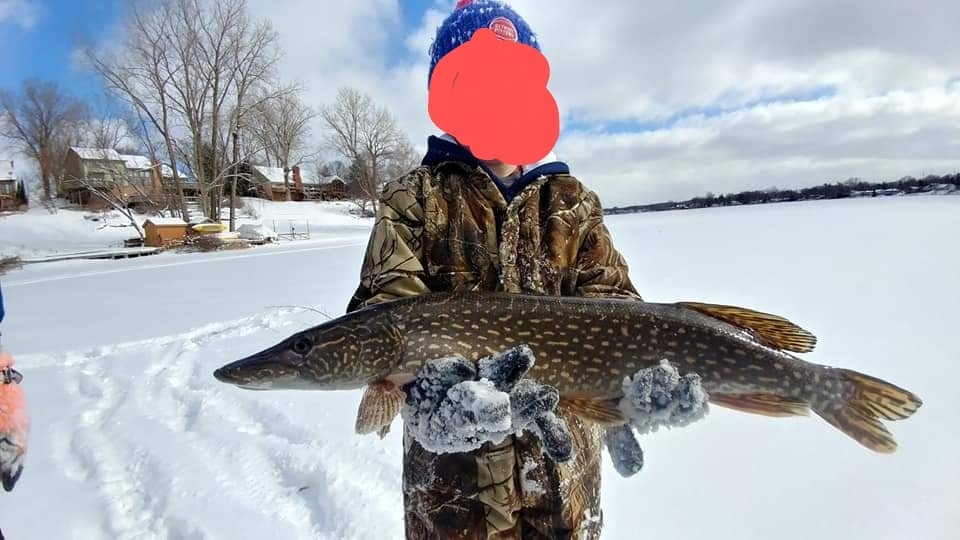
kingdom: Animalia
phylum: Chordata
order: Esociformes
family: Esocidae
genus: Esox
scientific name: Esox lucius
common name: Northern pike
